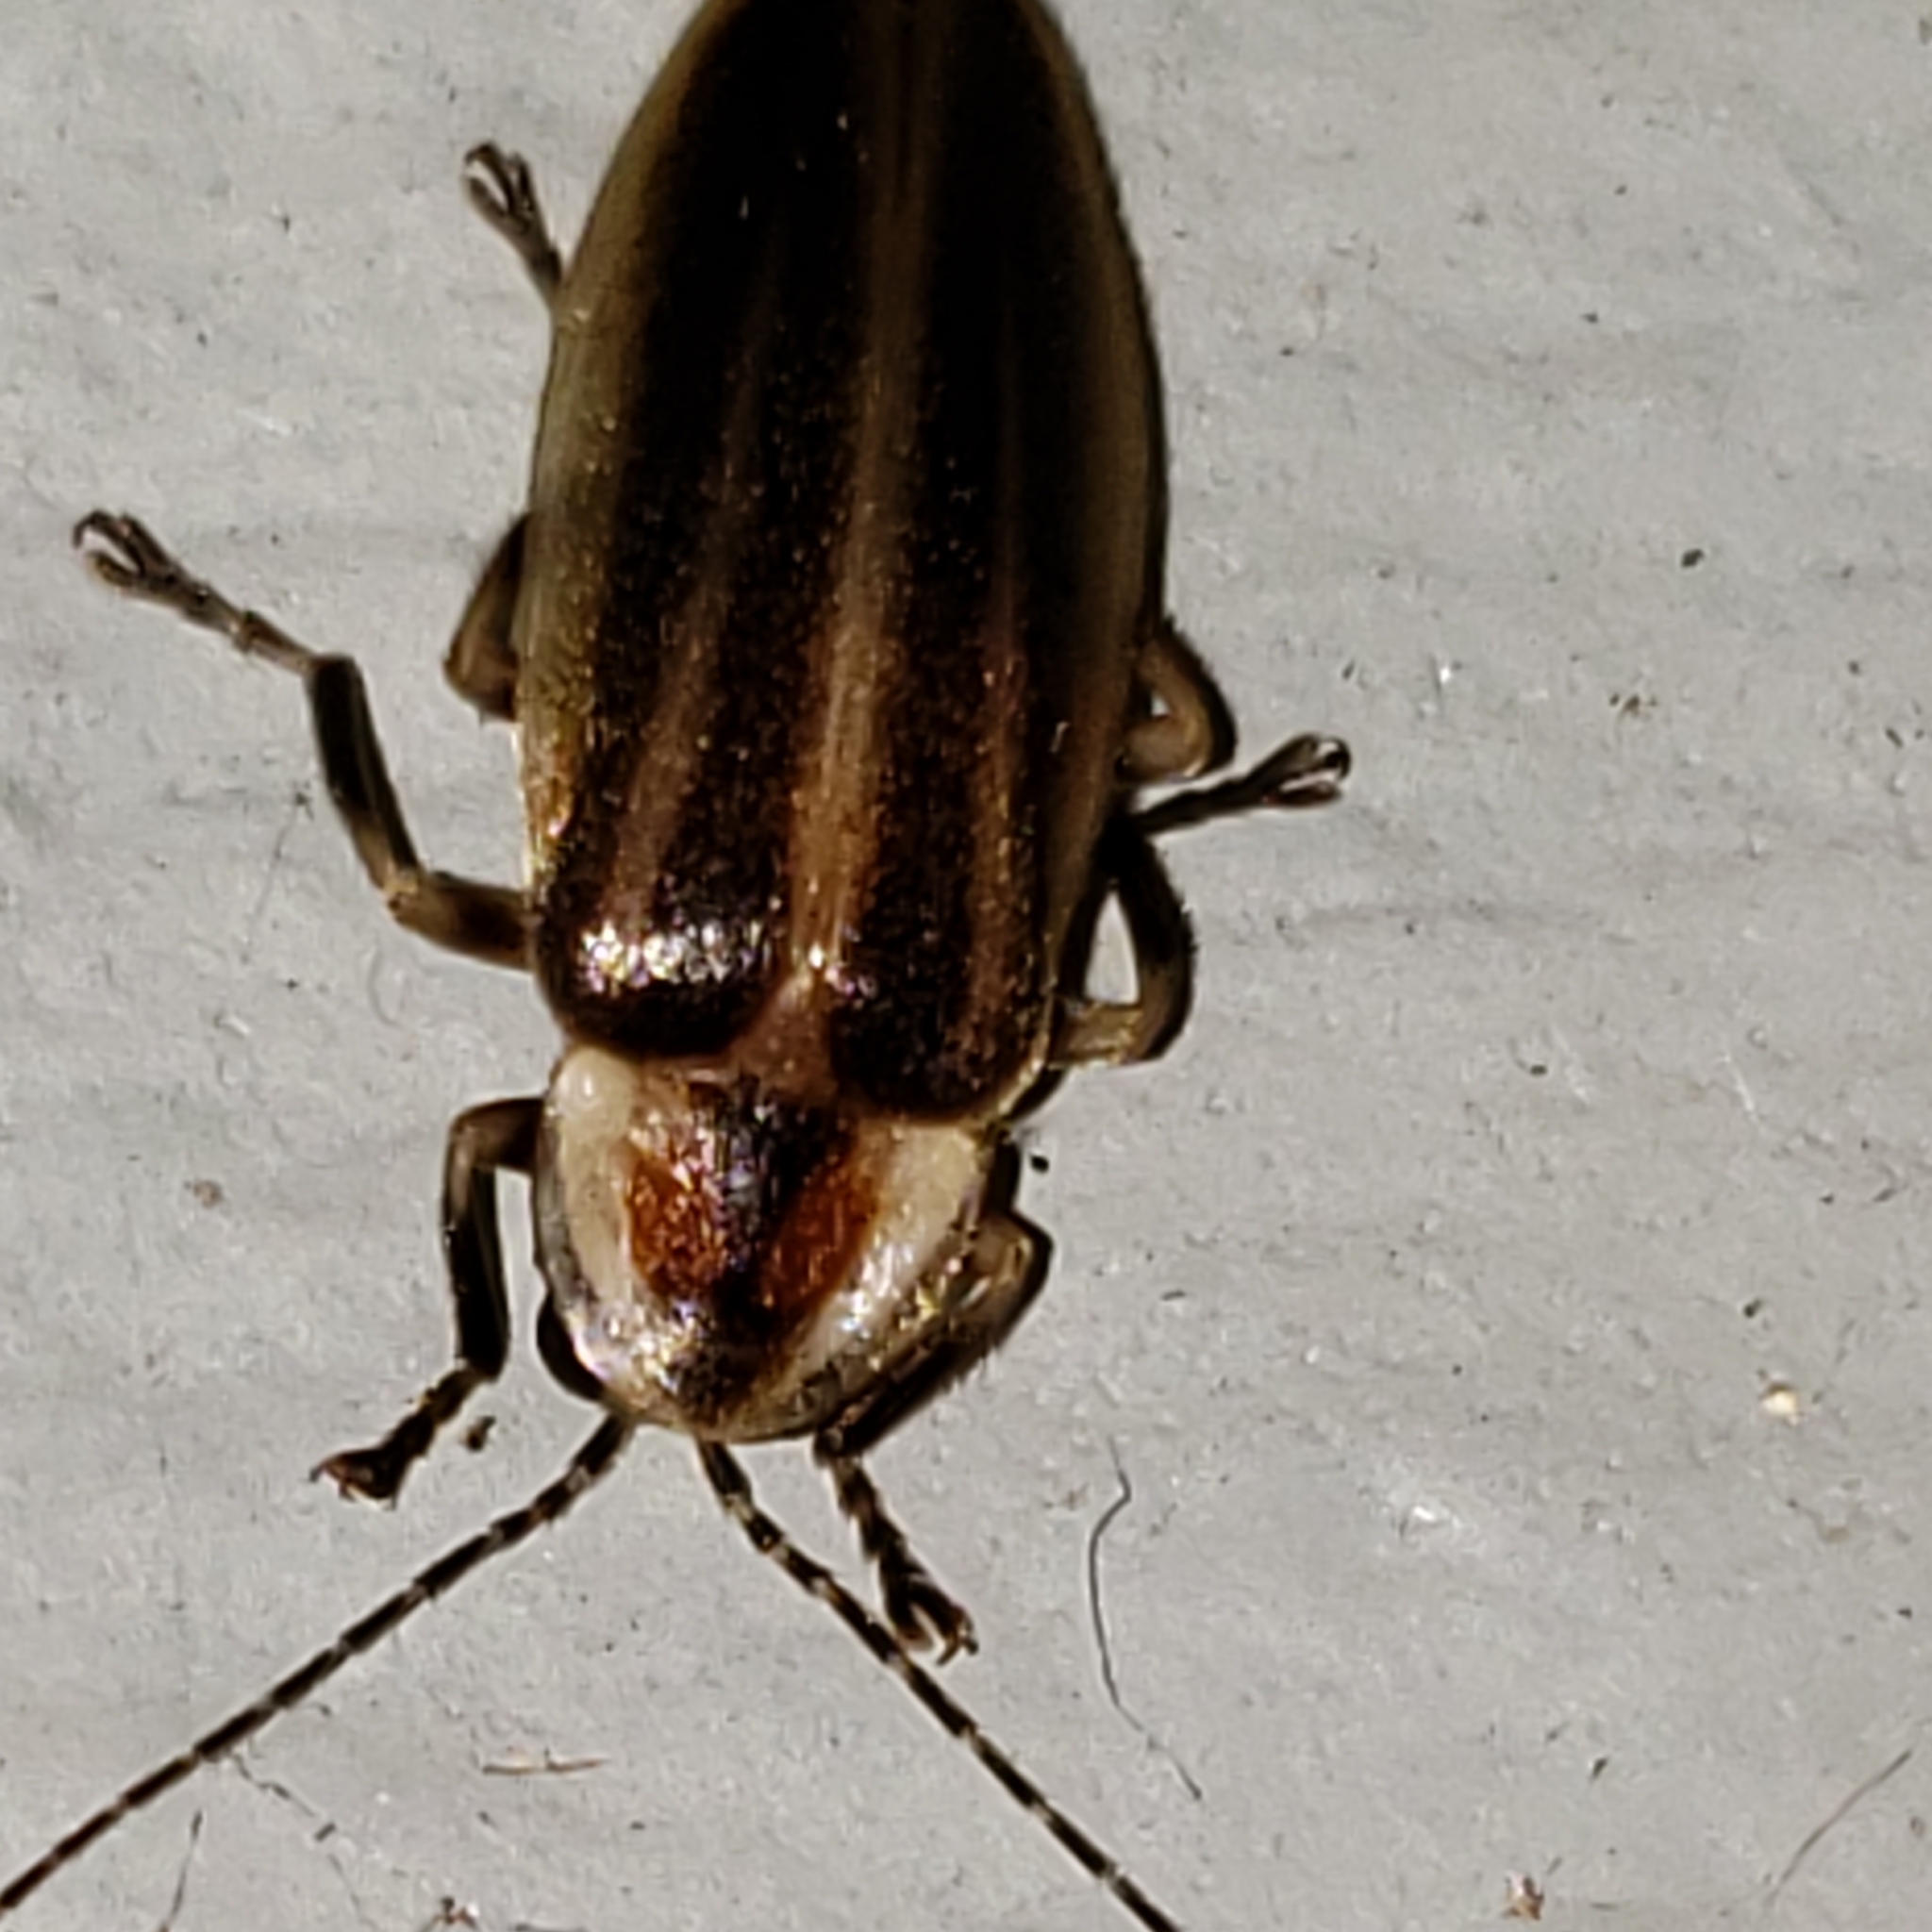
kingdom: Animalia
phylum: Arthropoda
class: Insecta
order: Coleoptera
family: Lampyridae
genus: Photuris
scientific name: Photuris
